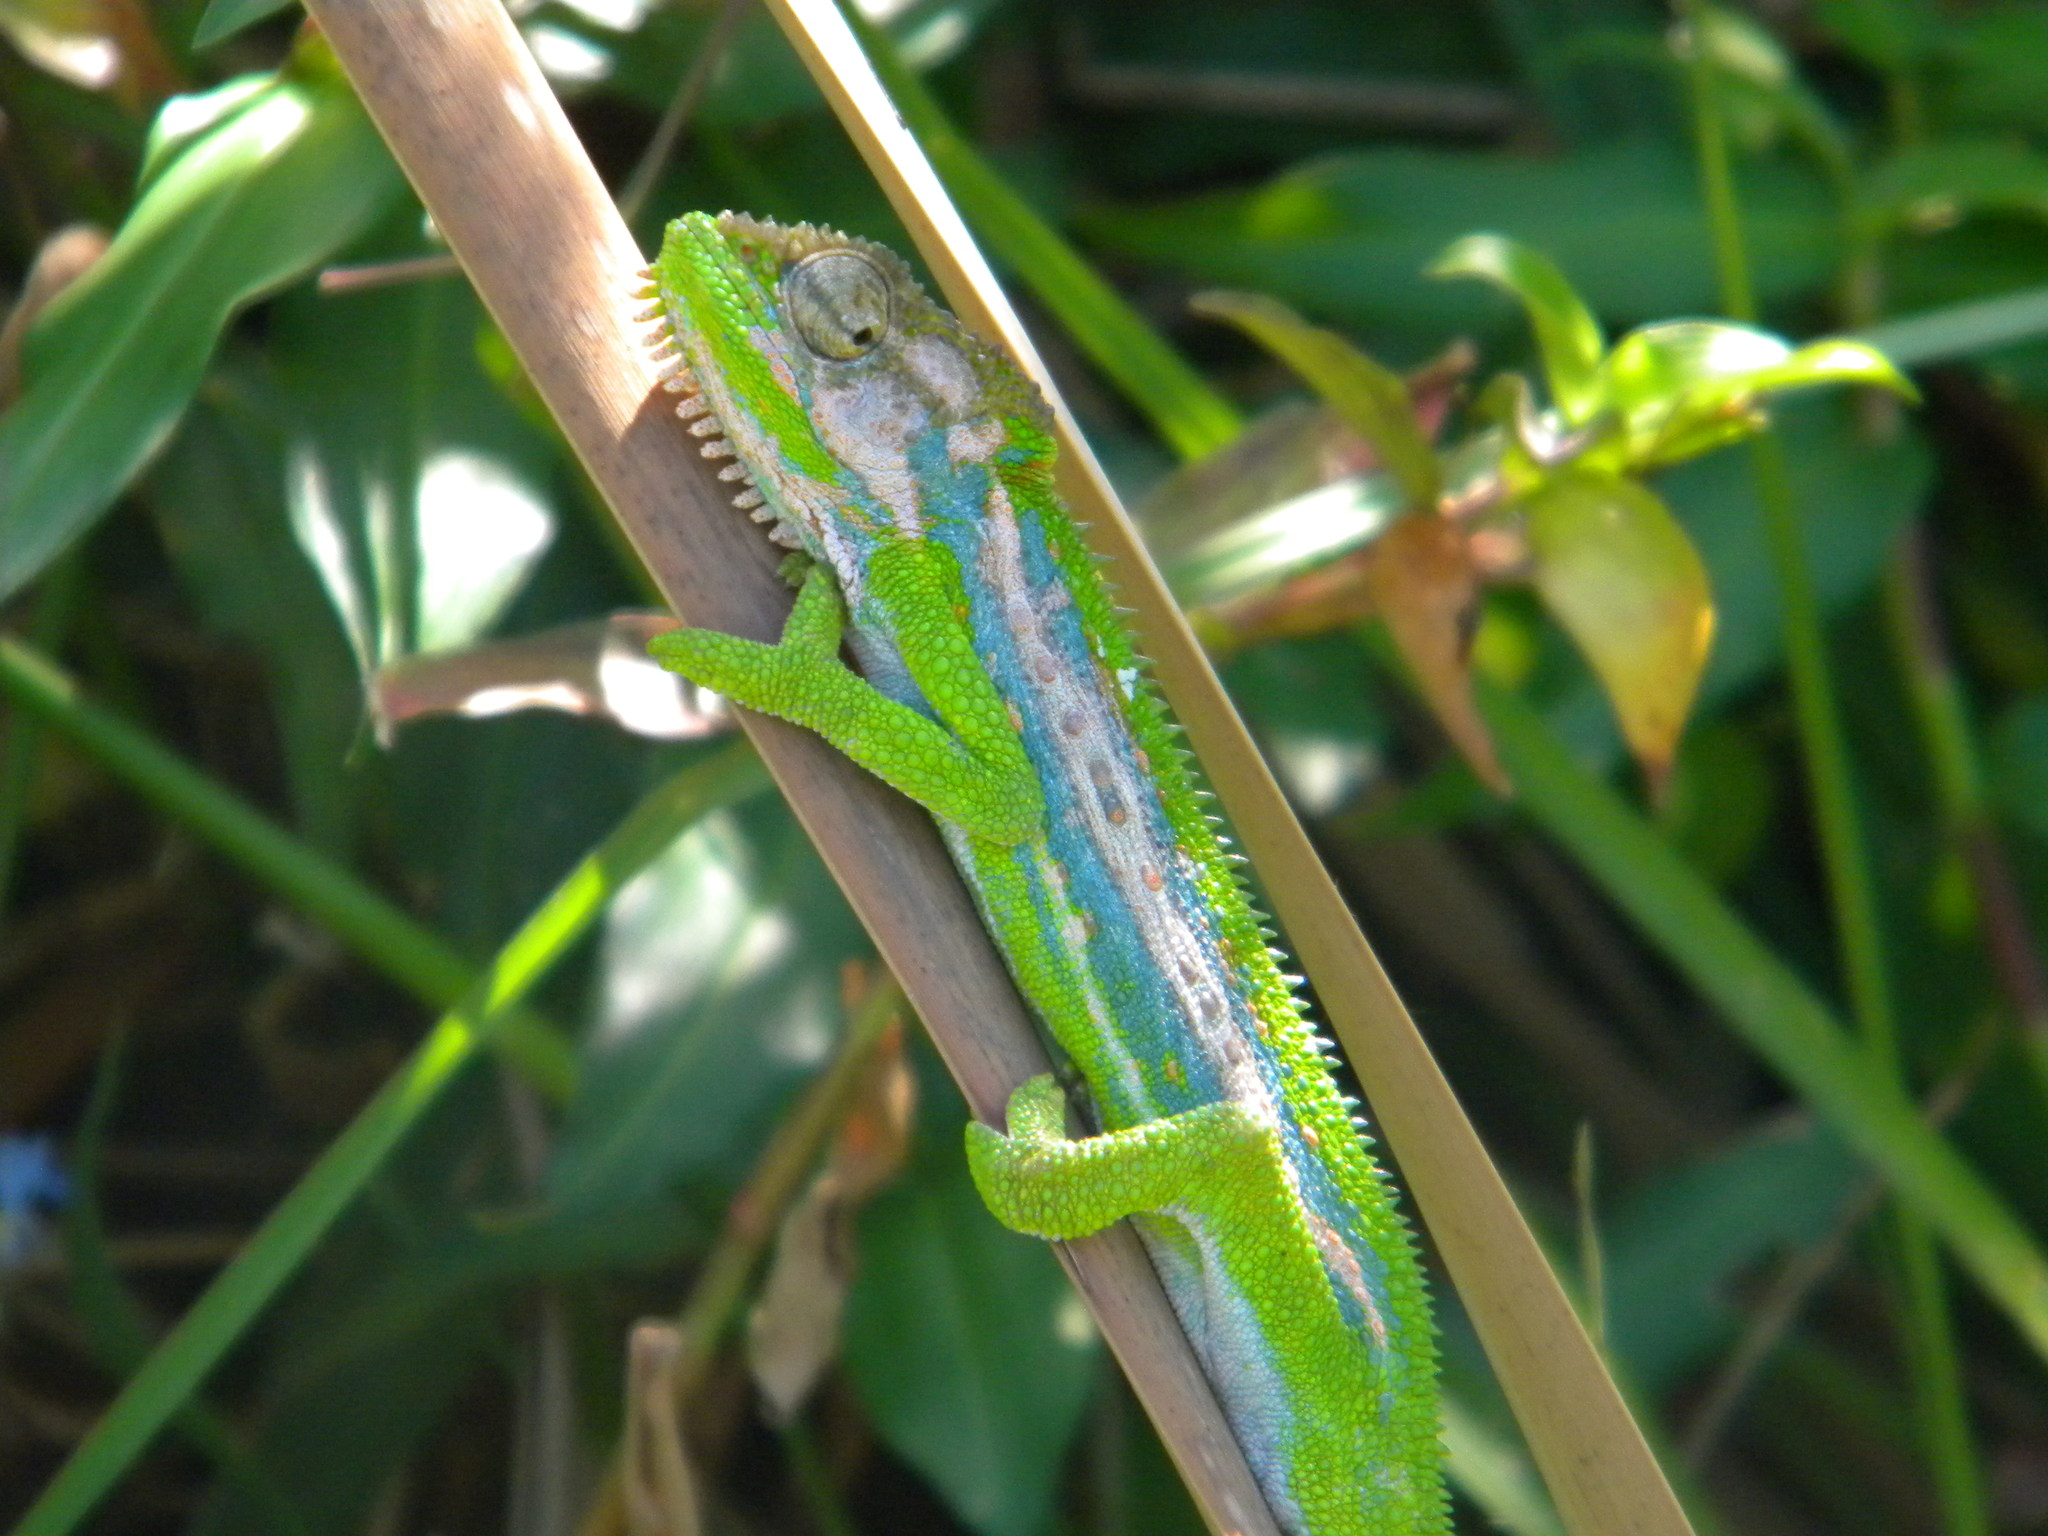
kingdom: Animalia
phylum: Chordata
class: Squamata
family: Chamaeleonidae
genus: Bradypodion
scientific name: Bradypodion pumilum
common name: Cape dwarf chameleon
